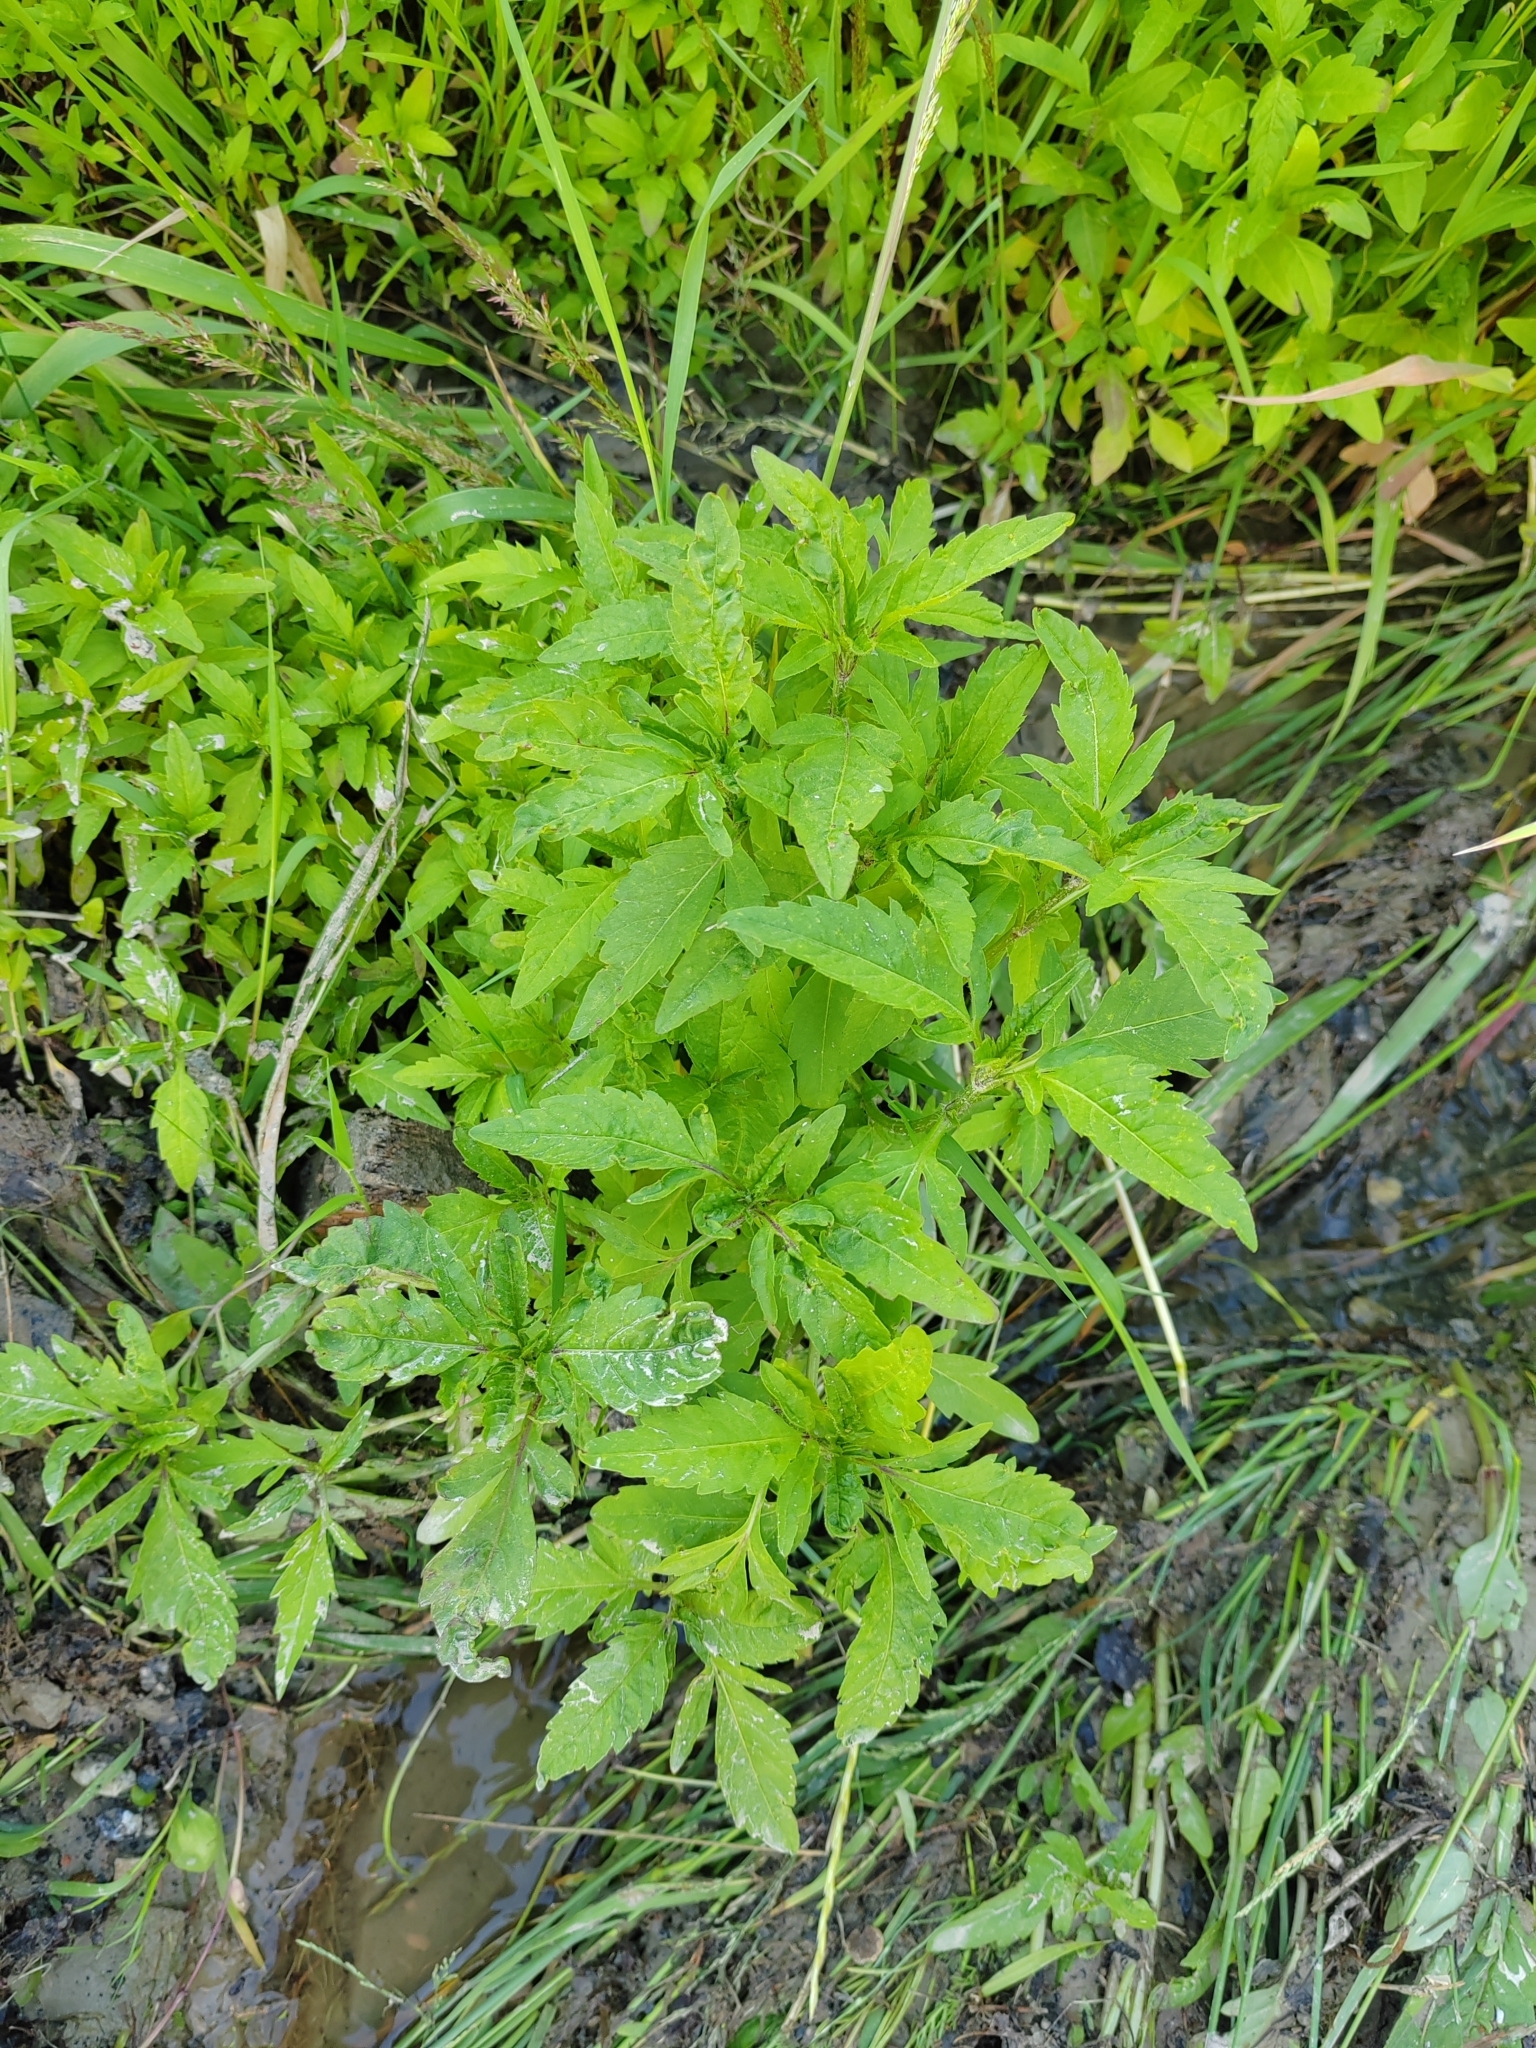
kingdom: Plantae
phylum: Tracheophyta
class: Magnoliopsida
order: Asterales
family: Asteraceae
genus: Bidens
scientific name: Bidens tripartita
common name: Trifid bur-marigold
